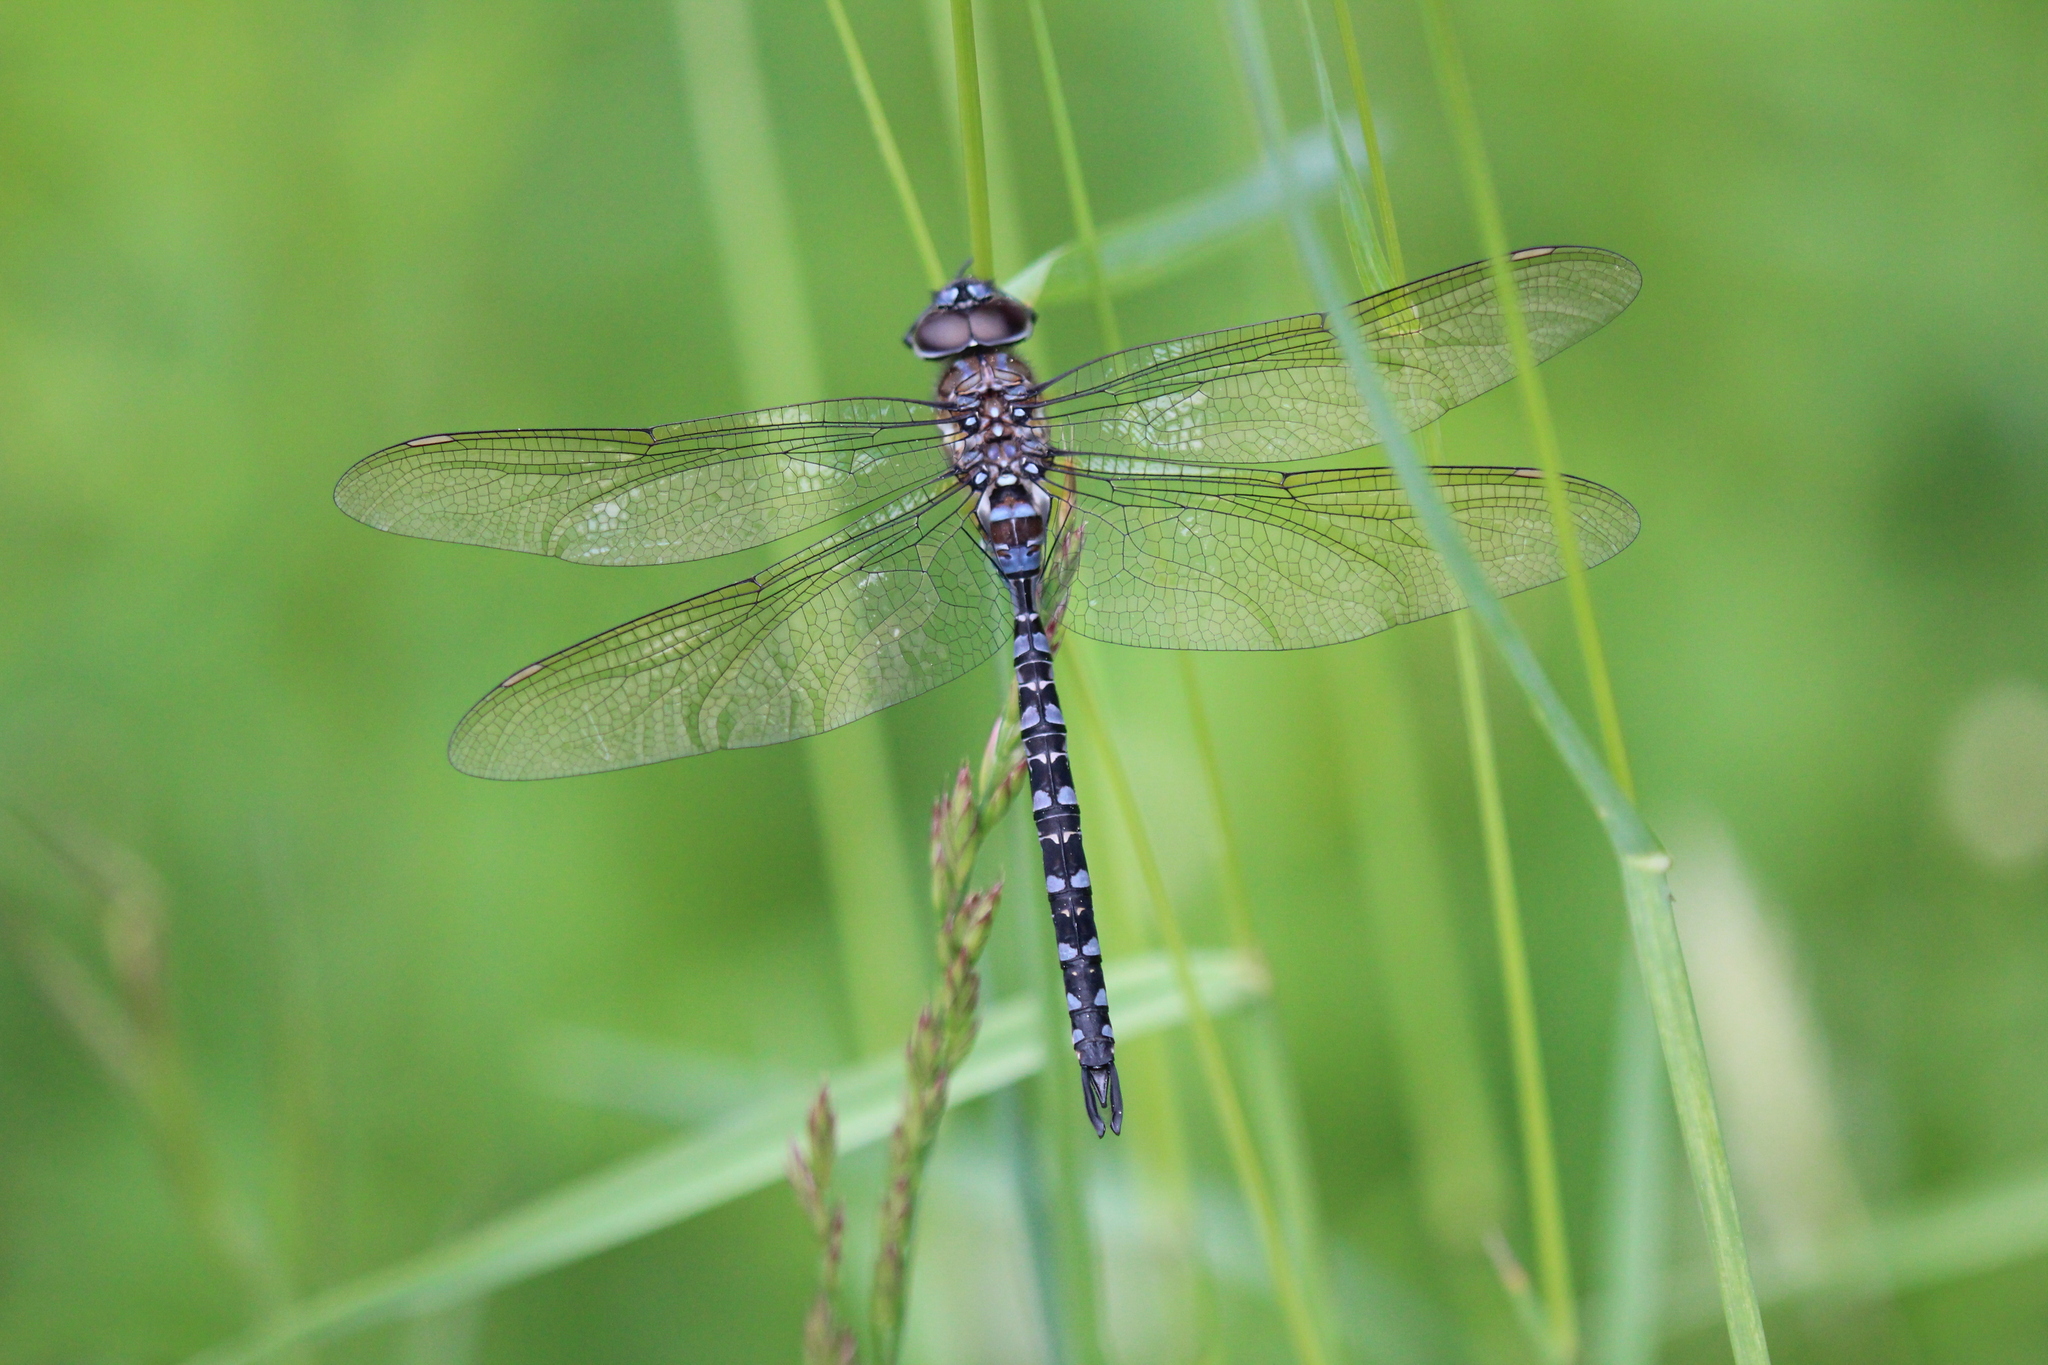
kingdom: Animalia
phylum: Arthropoda
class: Insecta
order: Odonata
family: Aeshnidae
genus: Rhionaeschna
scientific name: Rhionaeschna mutata
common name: Spatterdock darner
